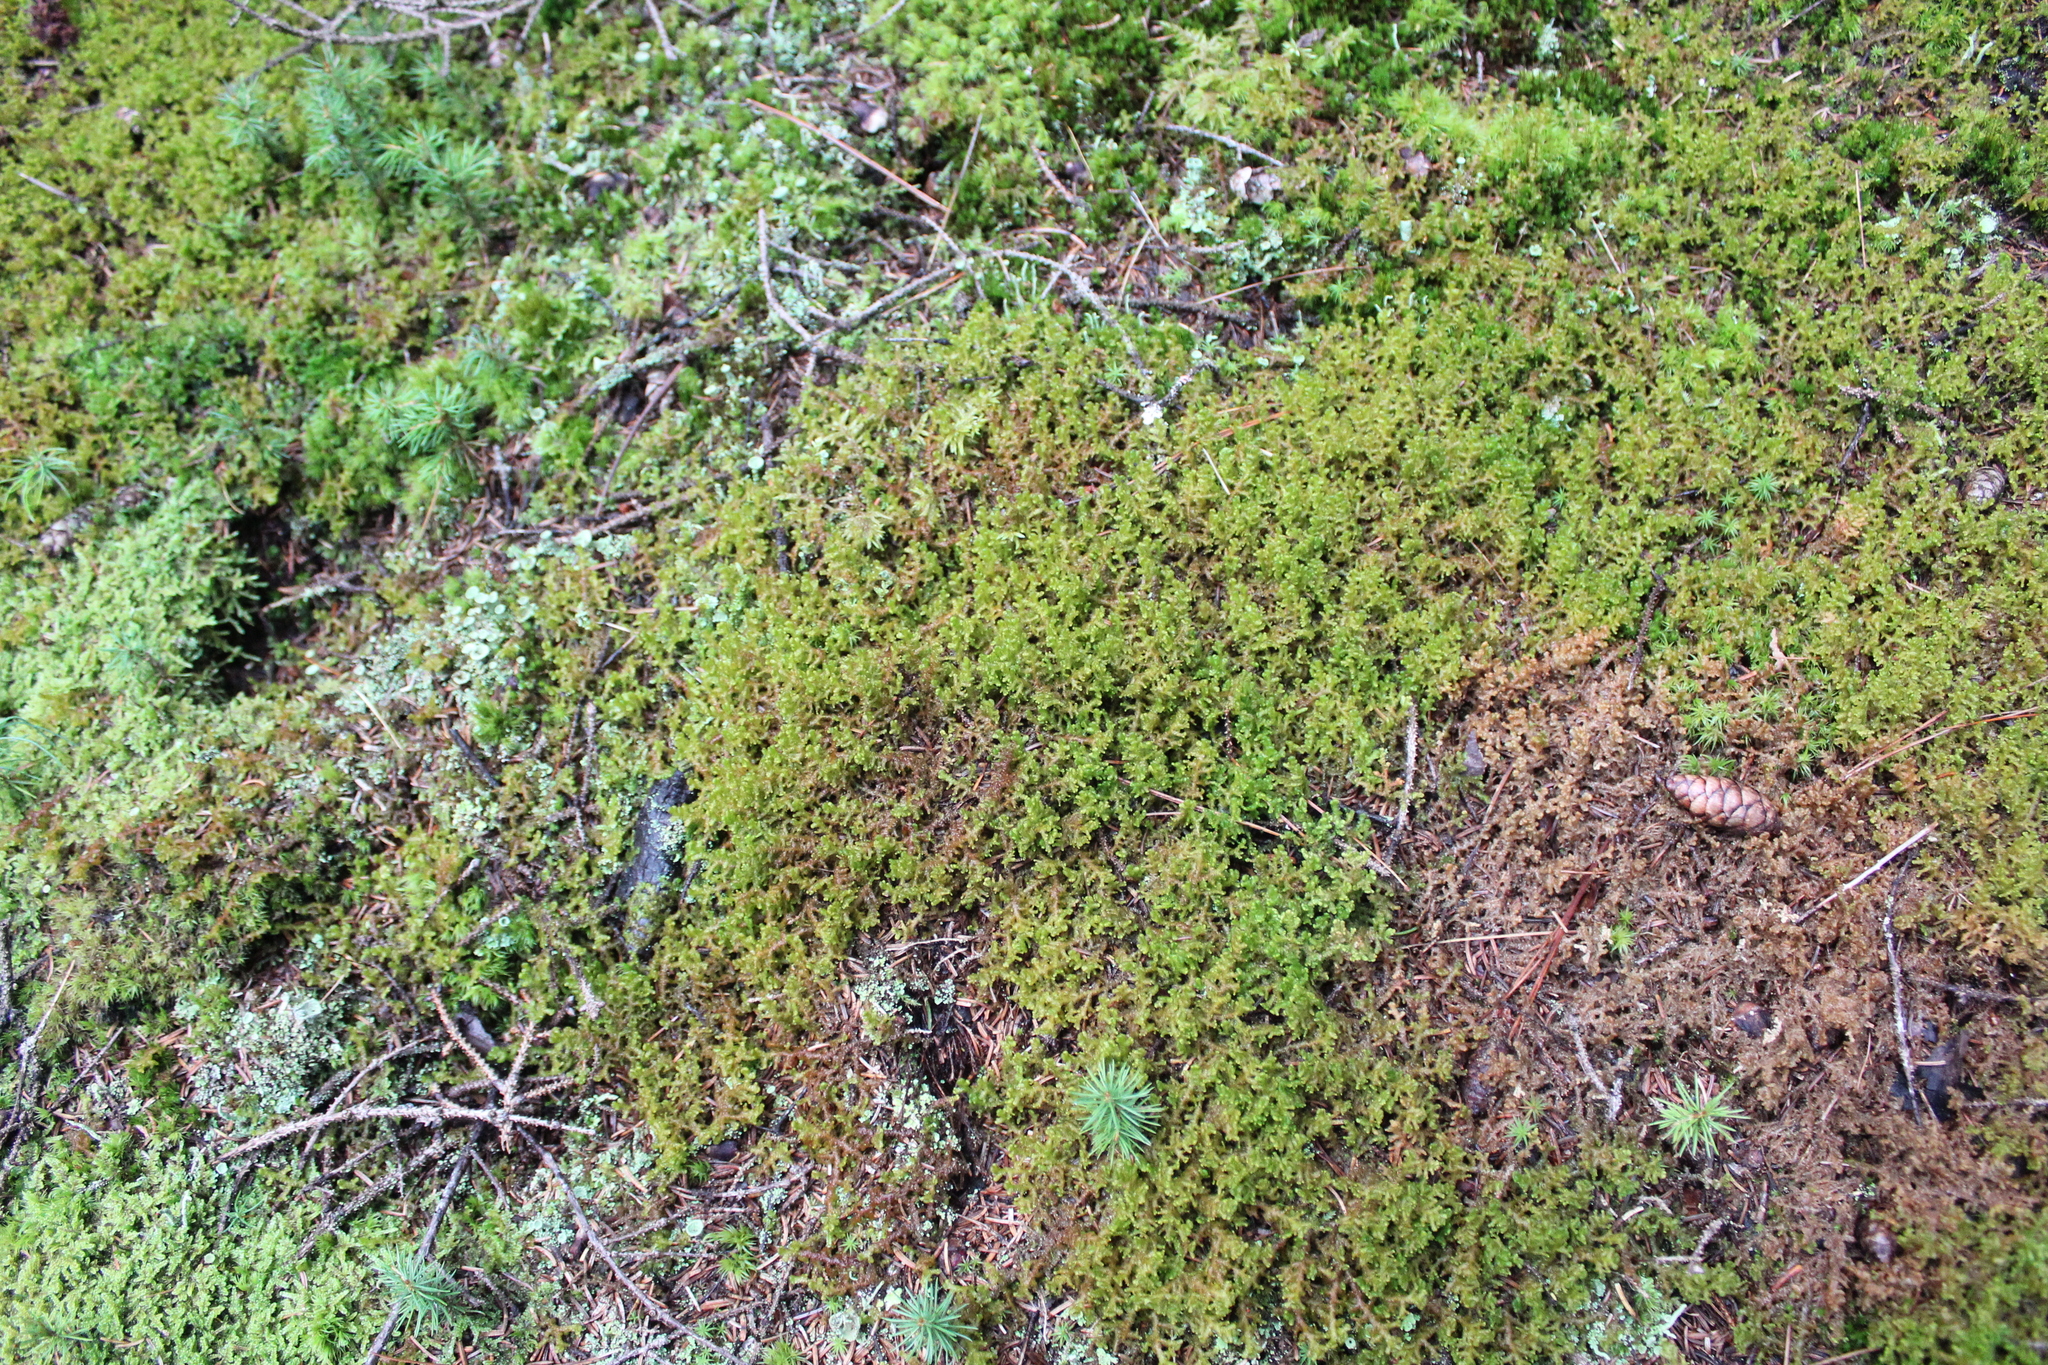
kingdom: Plantae
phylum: Marchantiophyta
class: Jungermanniopsida
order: Ptilidiales
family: Ptilidiaceae
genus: Ptilidium
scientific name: Ptilidium ciliare
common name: Ciliate fringewort
